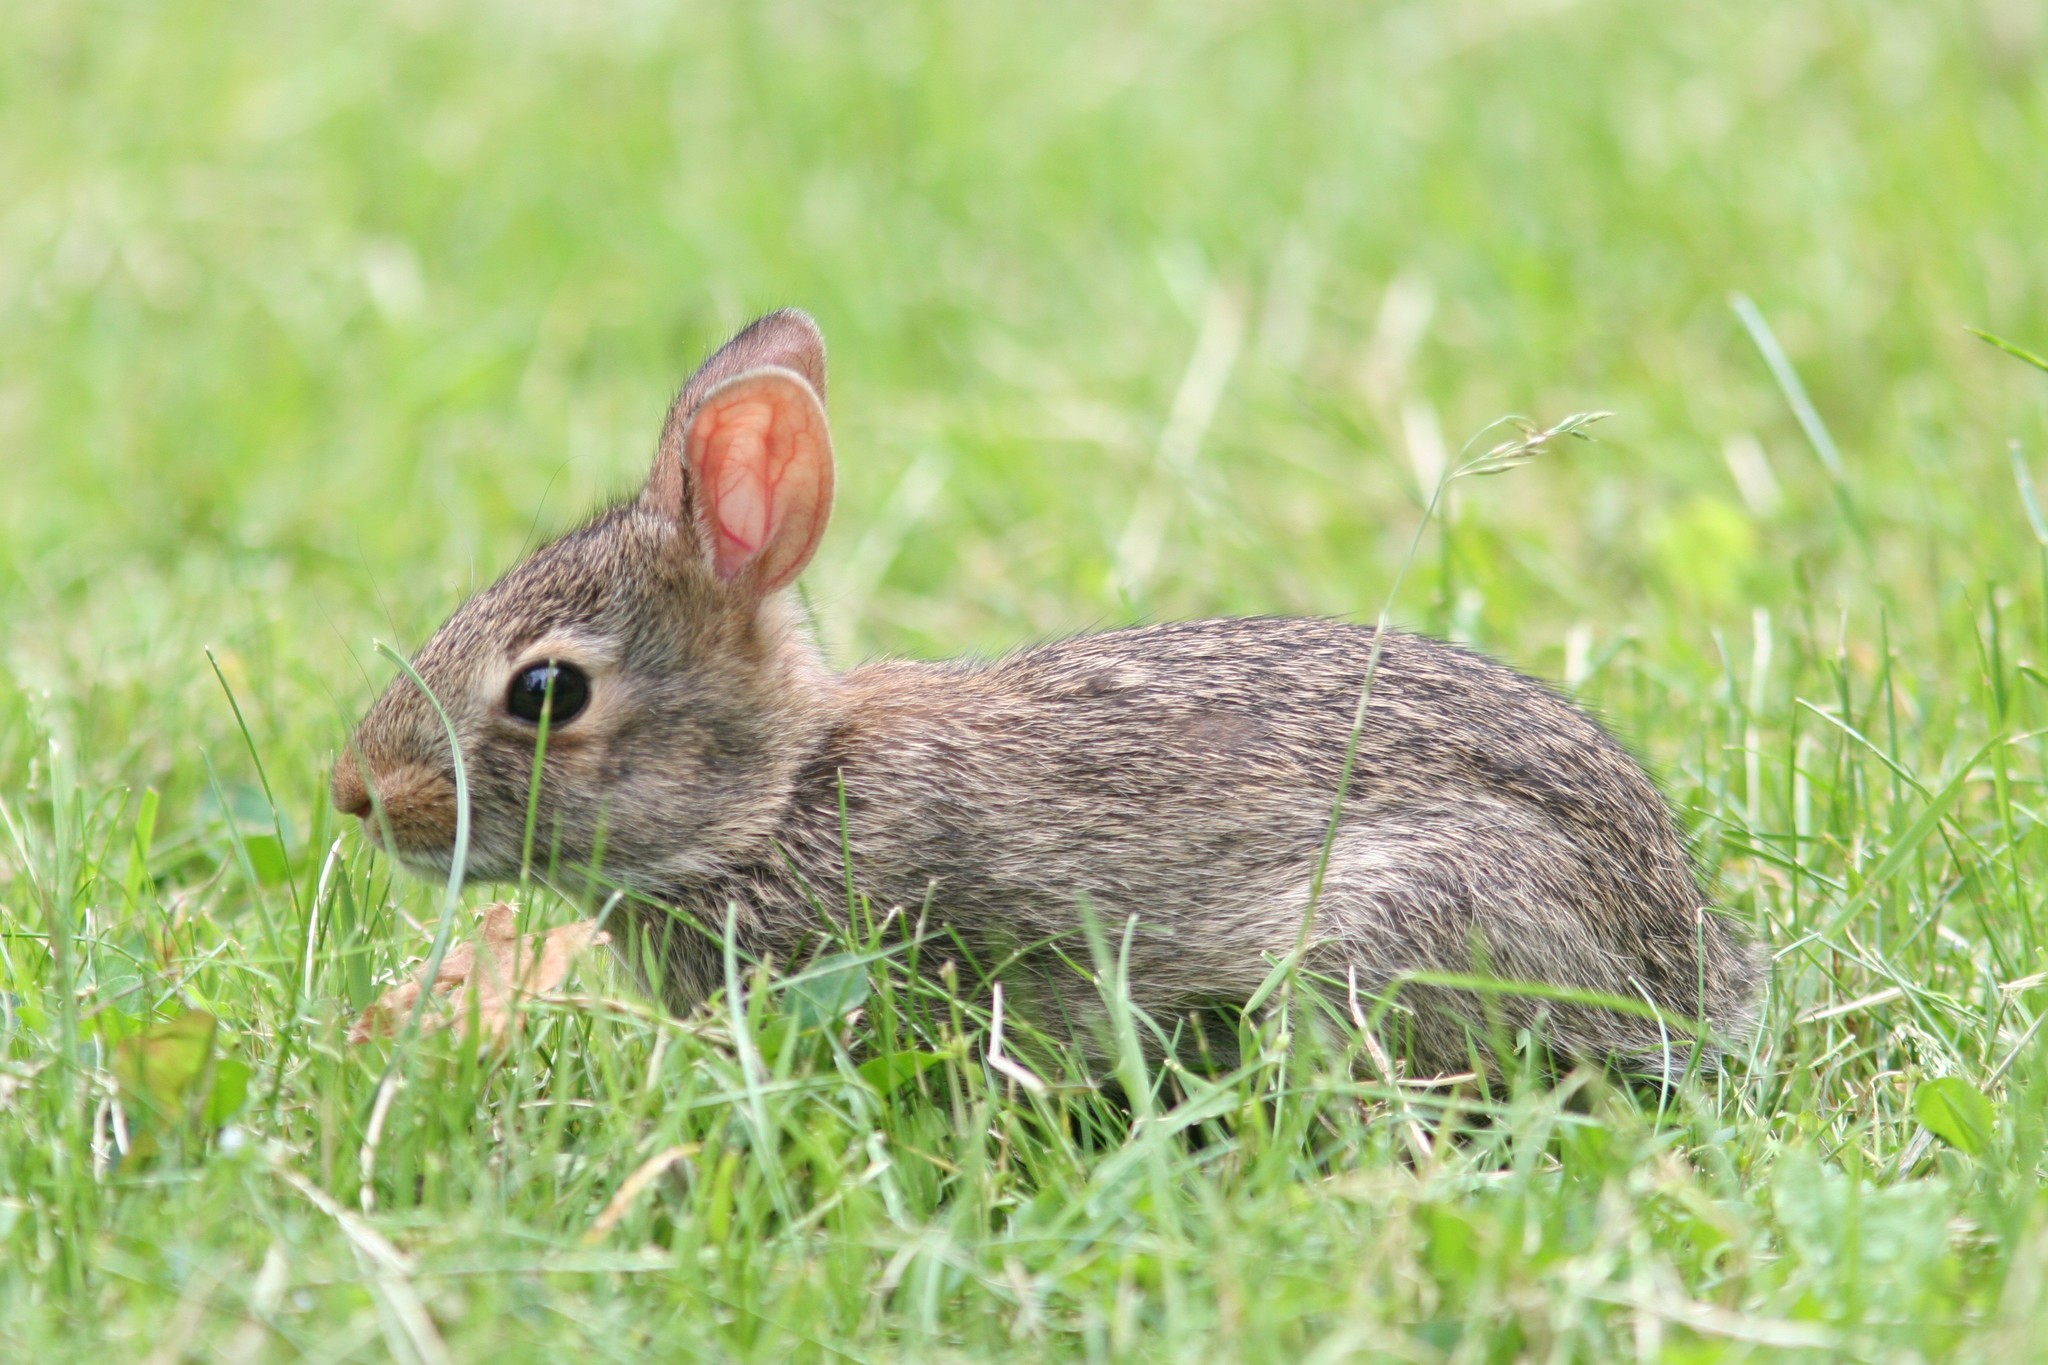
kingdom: Animalia
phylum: Chordata
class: Mammalia
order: Lagomorpha
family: Leporidae
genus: Sylvilagus
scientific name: Sylvilagus floridanus
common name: Eastern cottontail
